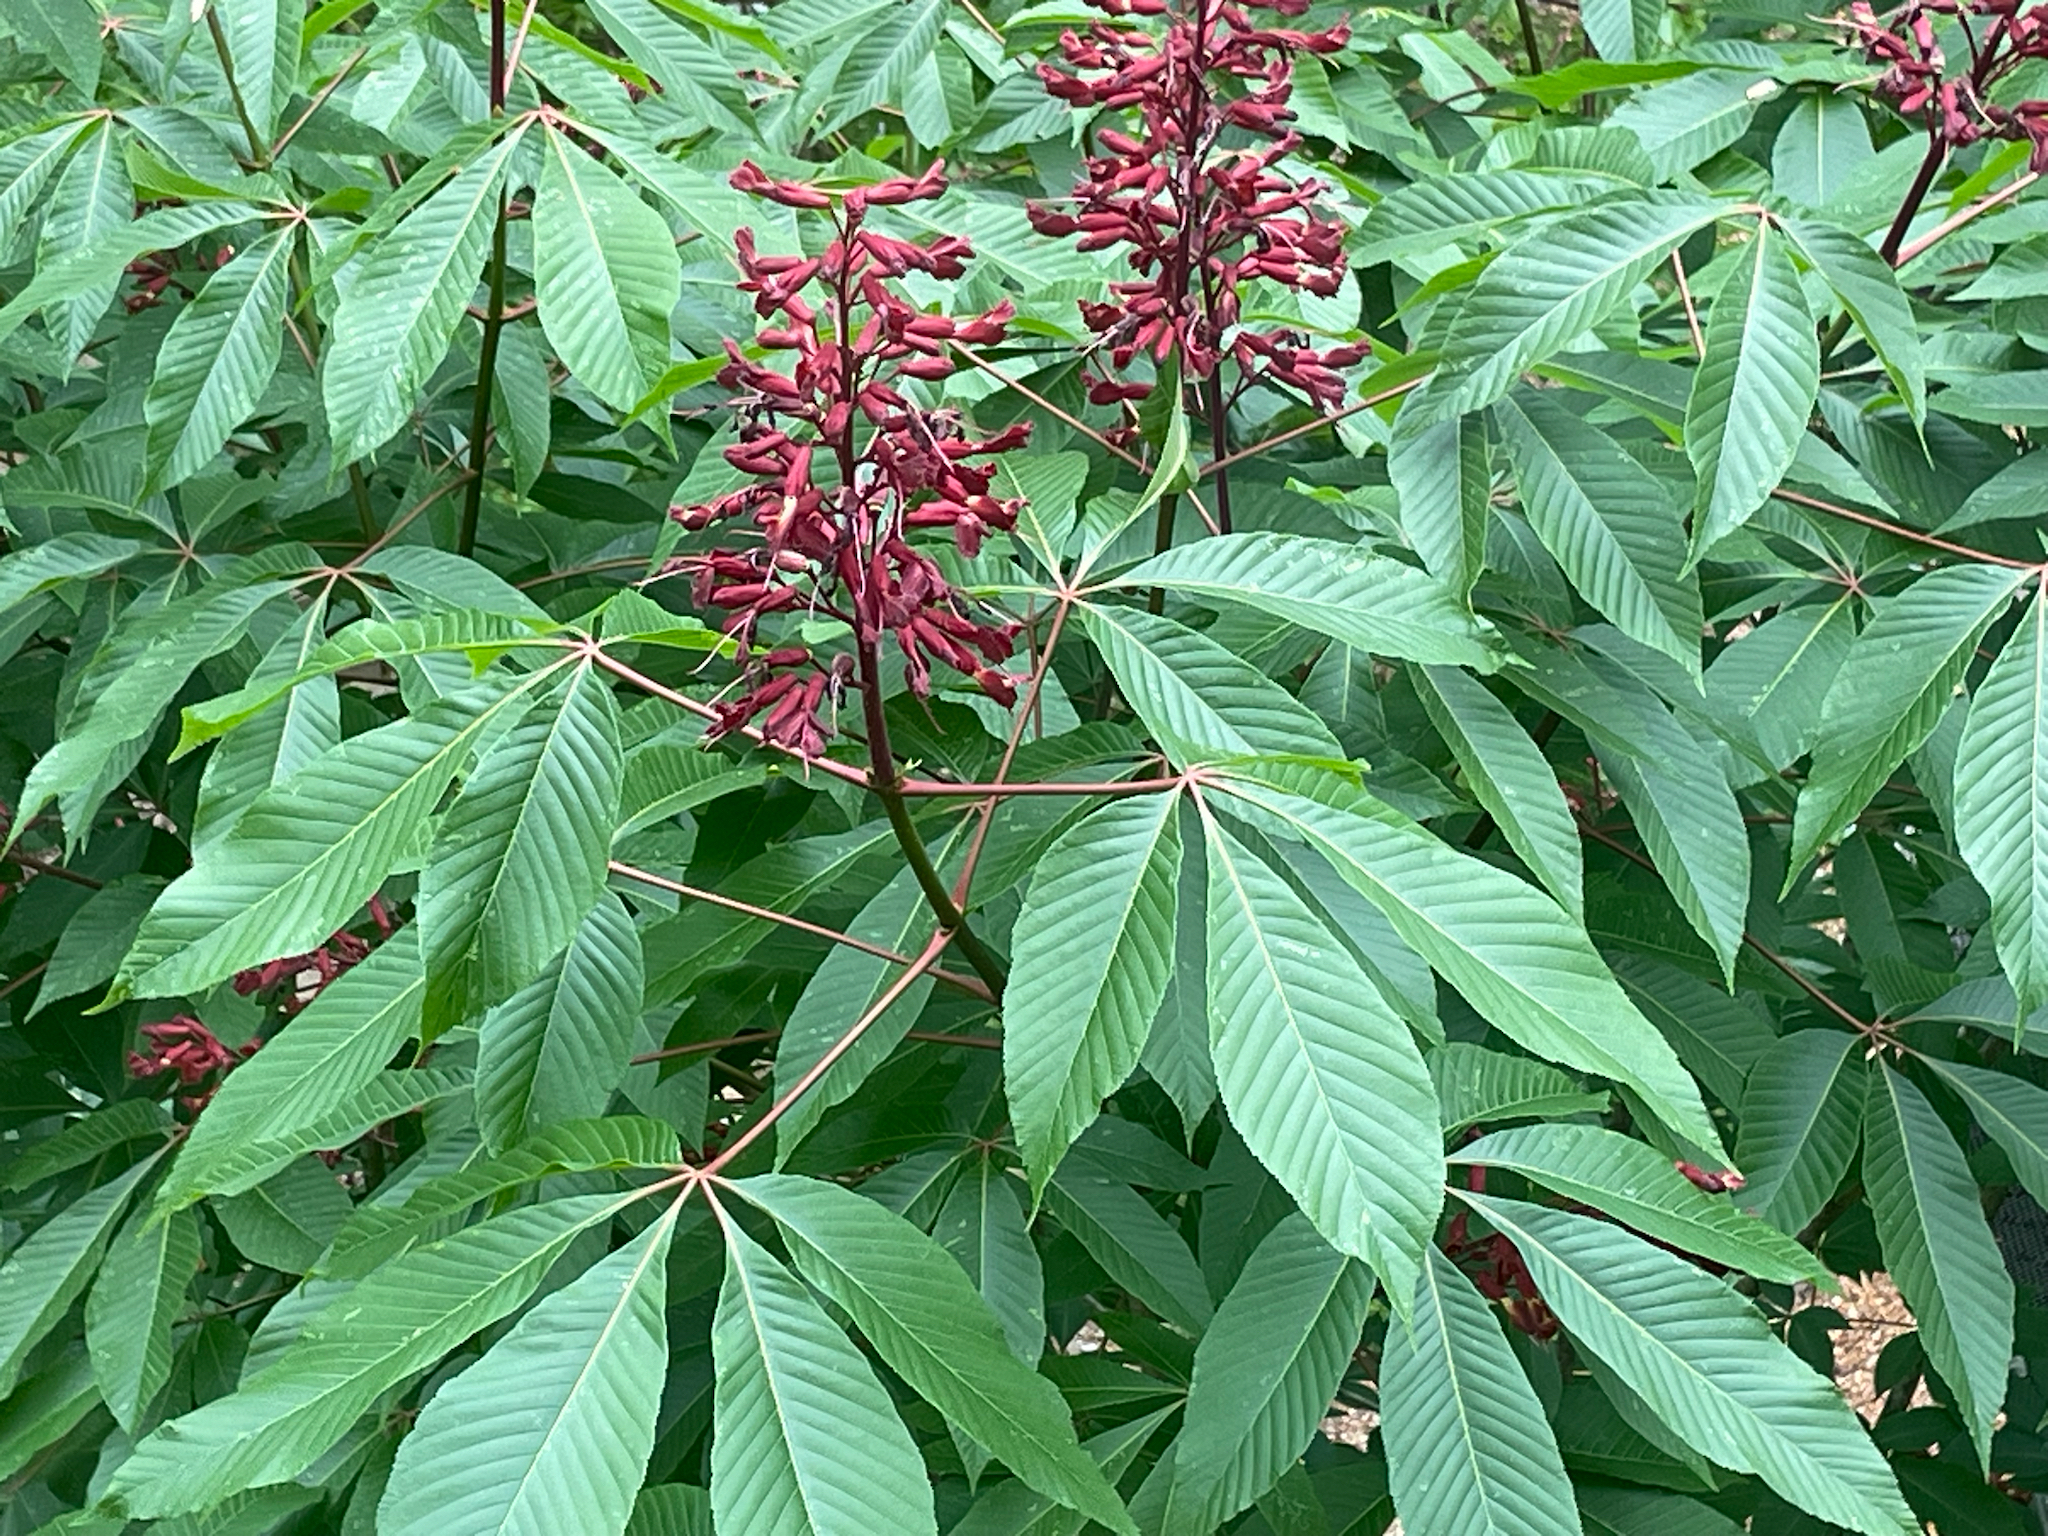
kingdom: Plantae
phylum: Tracheophyta
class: Magnoliopsida
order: Sapindales
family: Sapindaceae
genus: Aesculus
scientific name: Aesculus pavia
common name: Red buckeye
